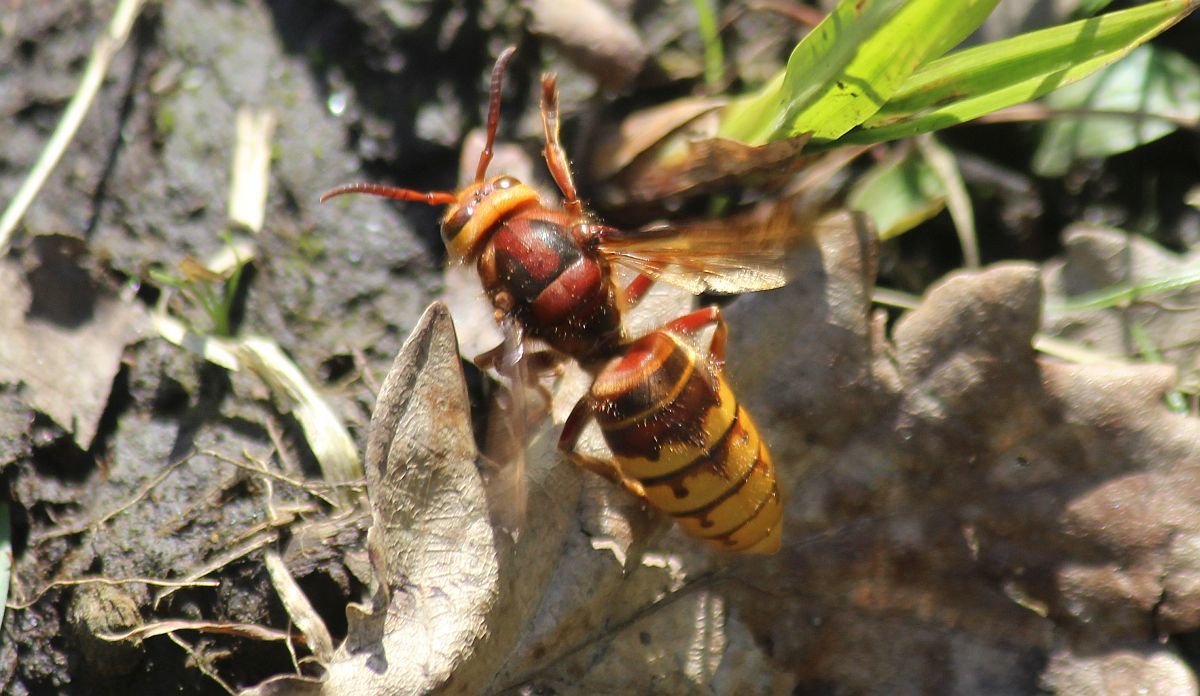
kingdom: Animalia
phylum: Arthropoda
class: Insecta
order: Hymenoptera
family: Vespidae
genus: Vespa
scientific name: Vespa crabro
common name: Hornet
